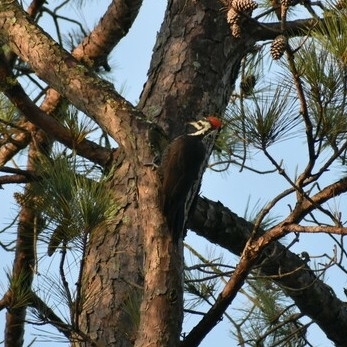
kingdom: Animalia
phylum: Chordata
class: Aves
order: Piciformes
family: Picidae
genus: Dryocopus
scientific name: Dryocopus pileatus
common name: Pileated woodpecker
